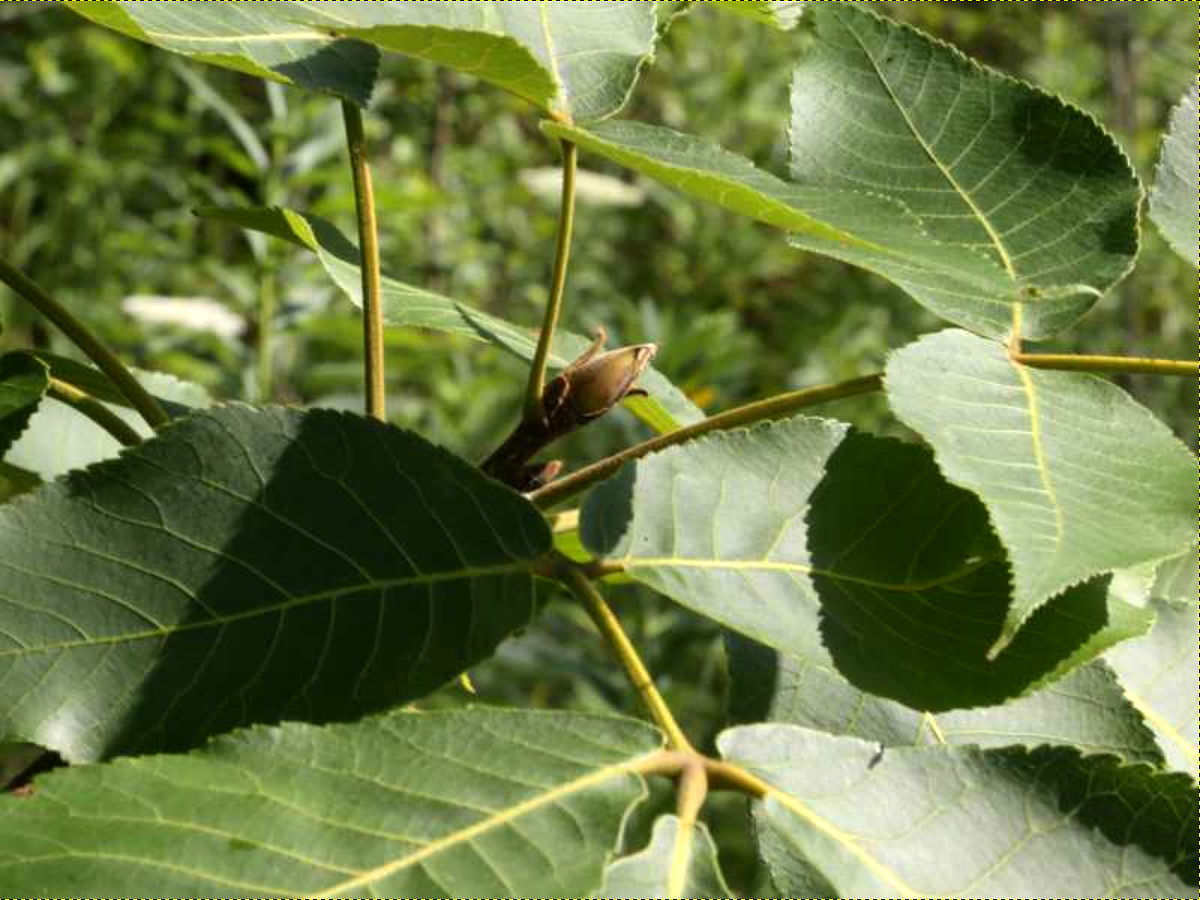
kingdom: Plantae
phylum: Tracheophyta
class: Magnoliopsida
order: Fagales
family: Juglandaceae
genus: Carya
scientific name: Carya ovata
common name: Shagbark hickory
